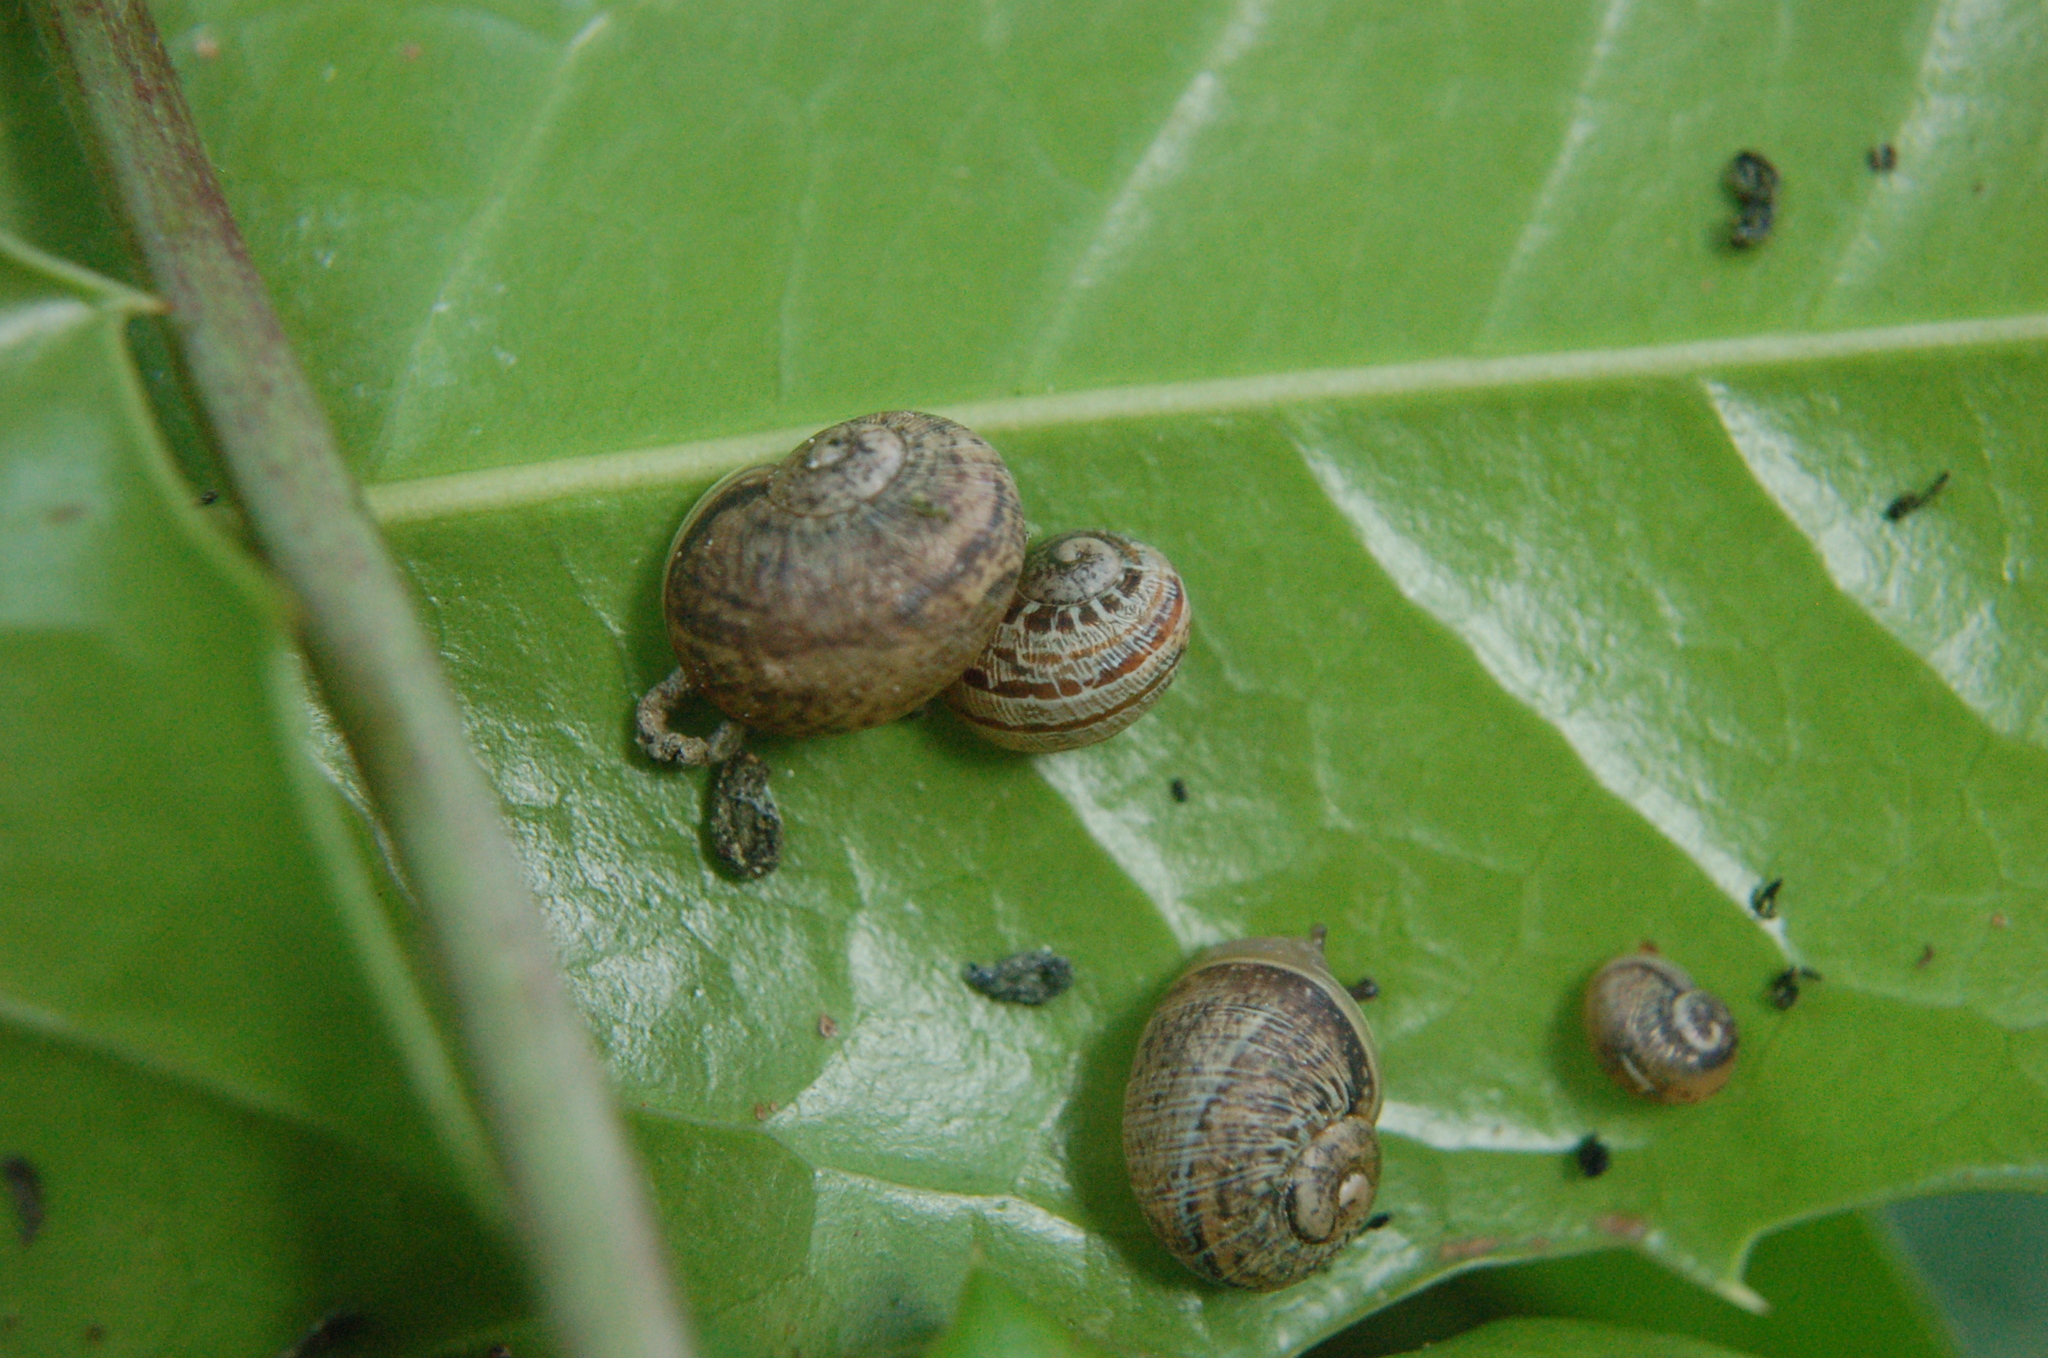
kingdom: Animalia
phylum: Mollusca
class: Gastropoda
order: Stylommatophora
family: Helicidae
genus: Cornu
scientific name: Cornu aspersum
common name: Brown garden snail
